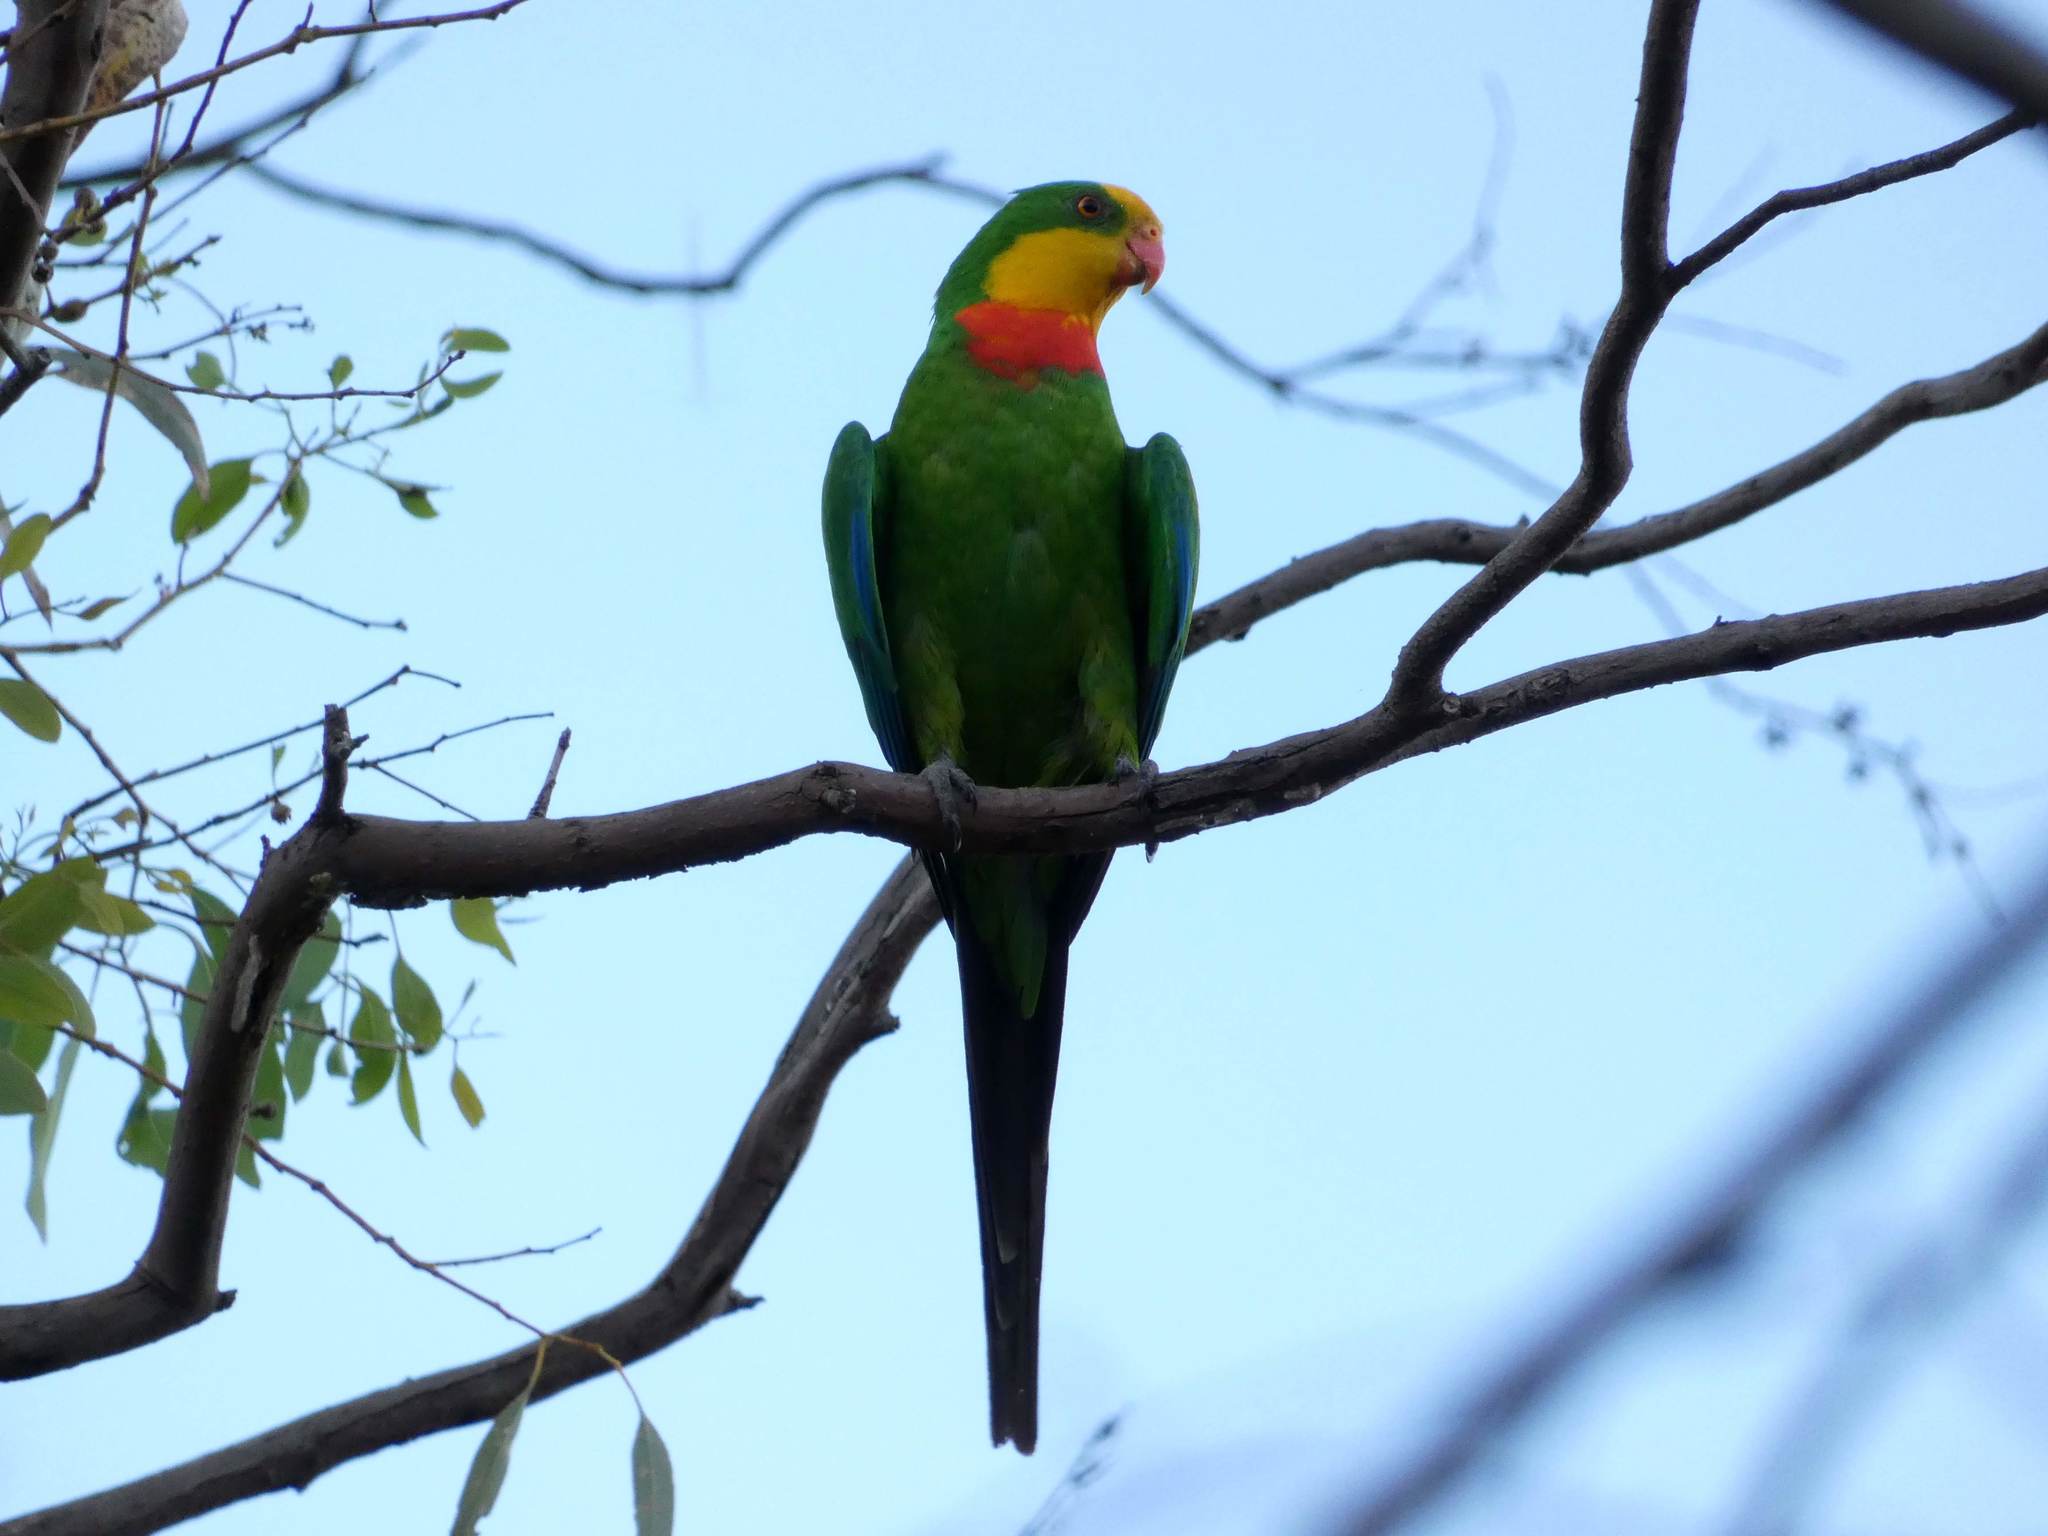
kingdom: Animalia
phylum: Chordata
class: Aves
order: Psittaciformes
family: Psittacidae
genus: Polytelis
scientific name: Polytelis swainsonii
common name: Superb parrot
